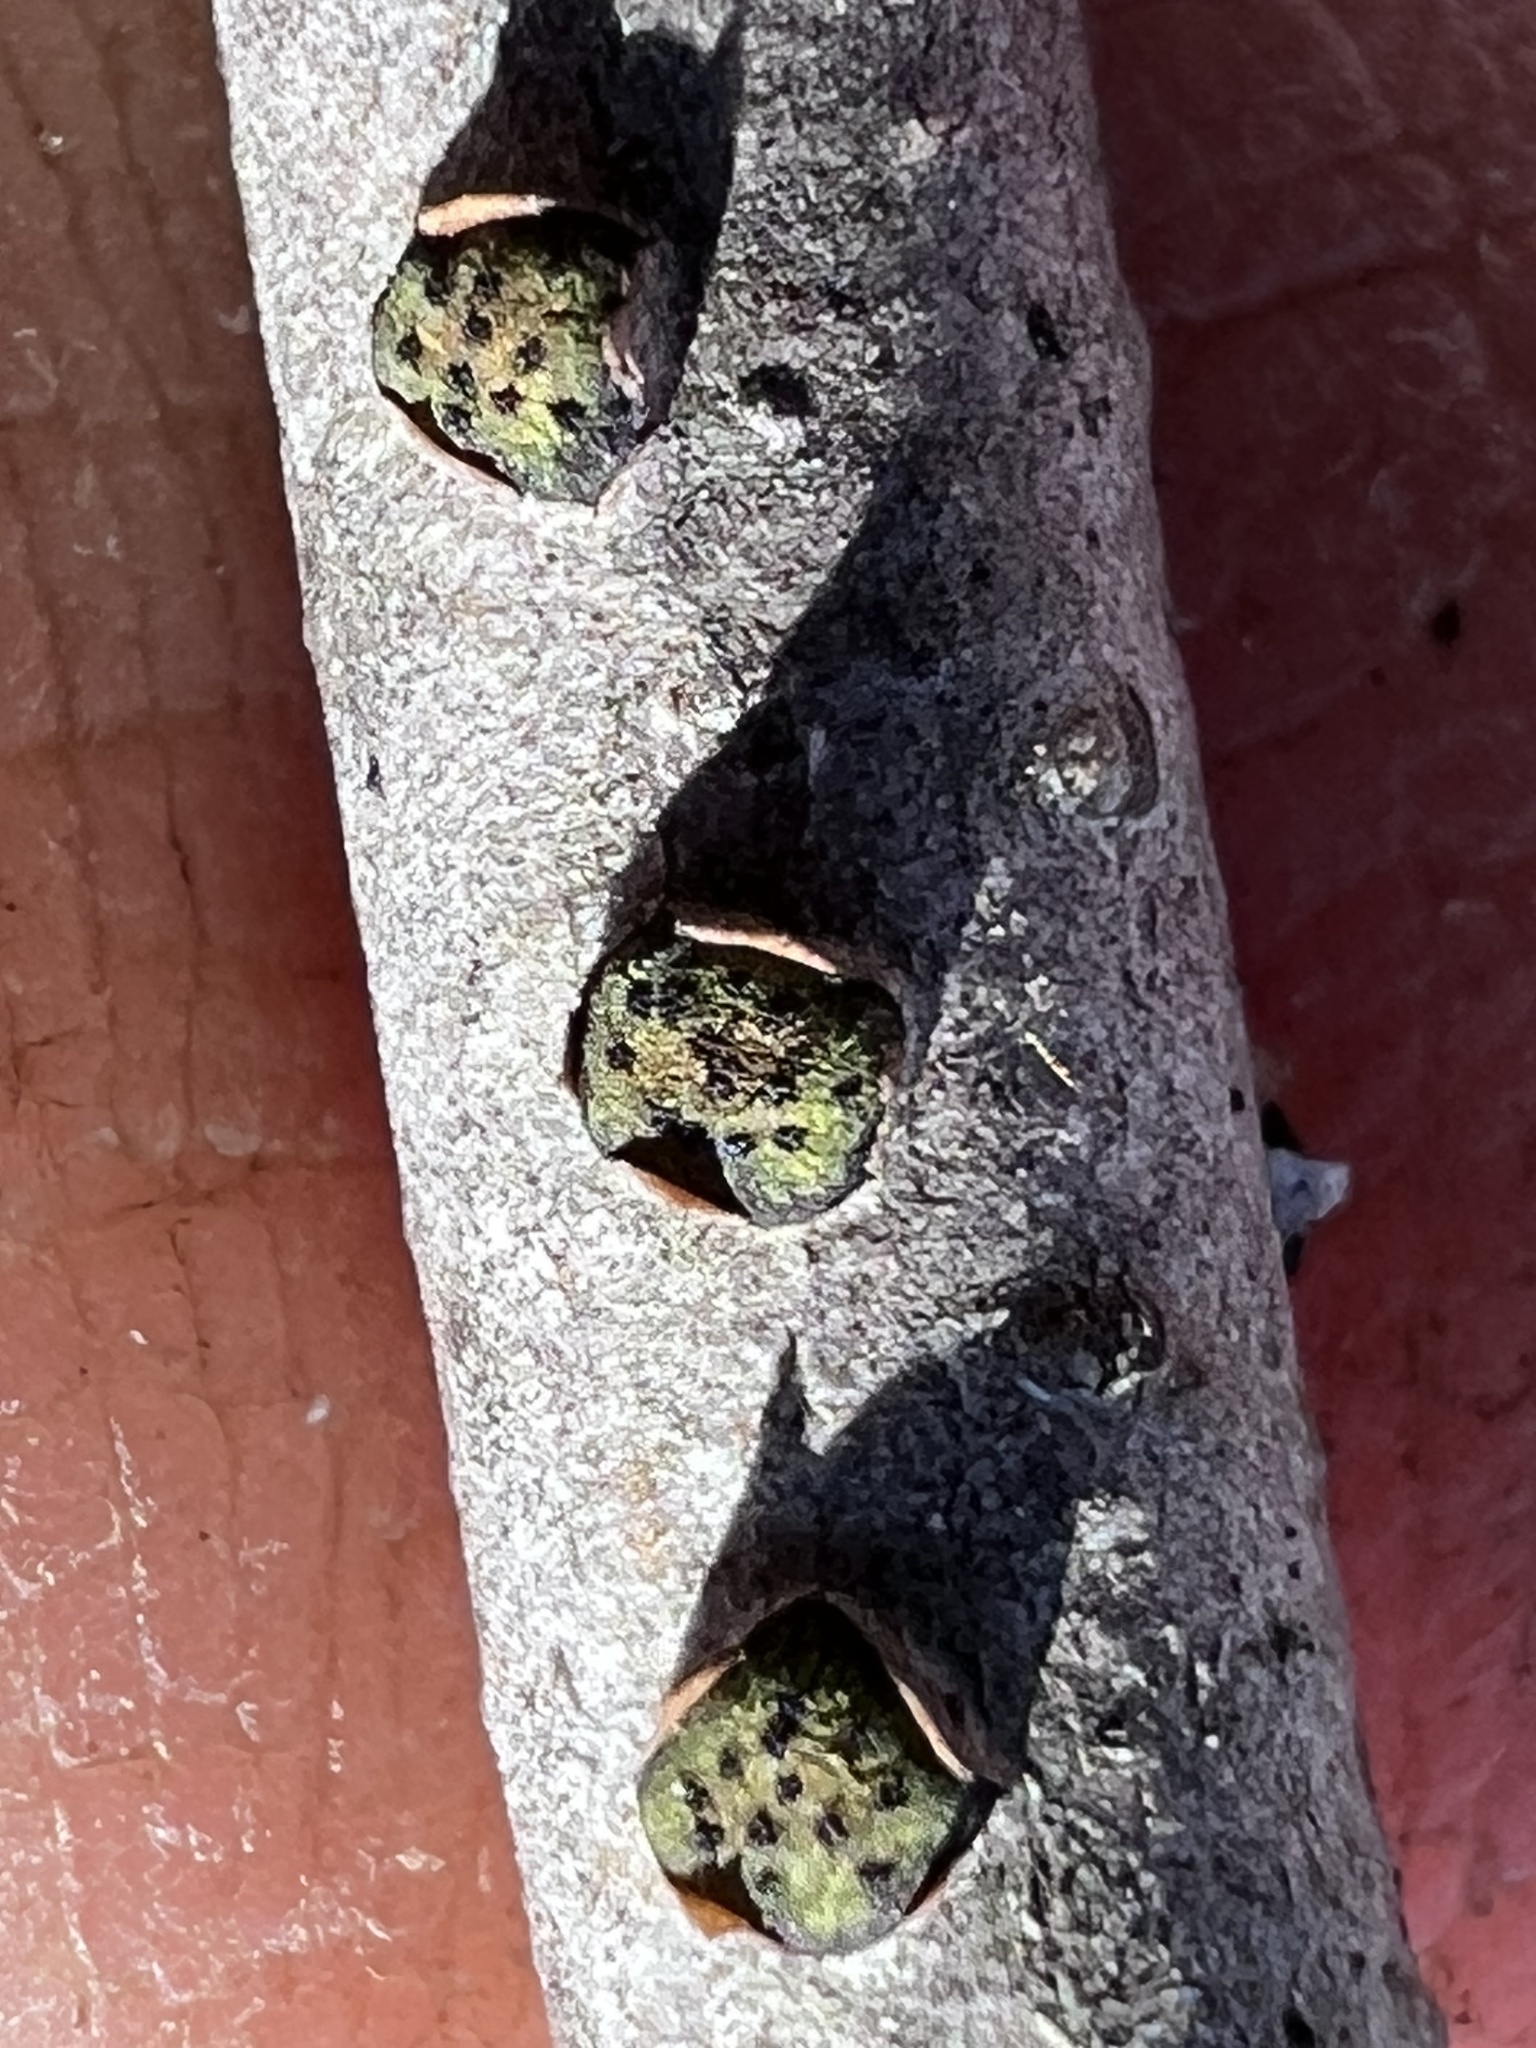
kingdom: Fungi
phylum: Ascomycota
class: Sordariomycetes
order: Xylariales
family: Diatrypaceae
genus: Diatrype
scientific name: Diatrype virescens
